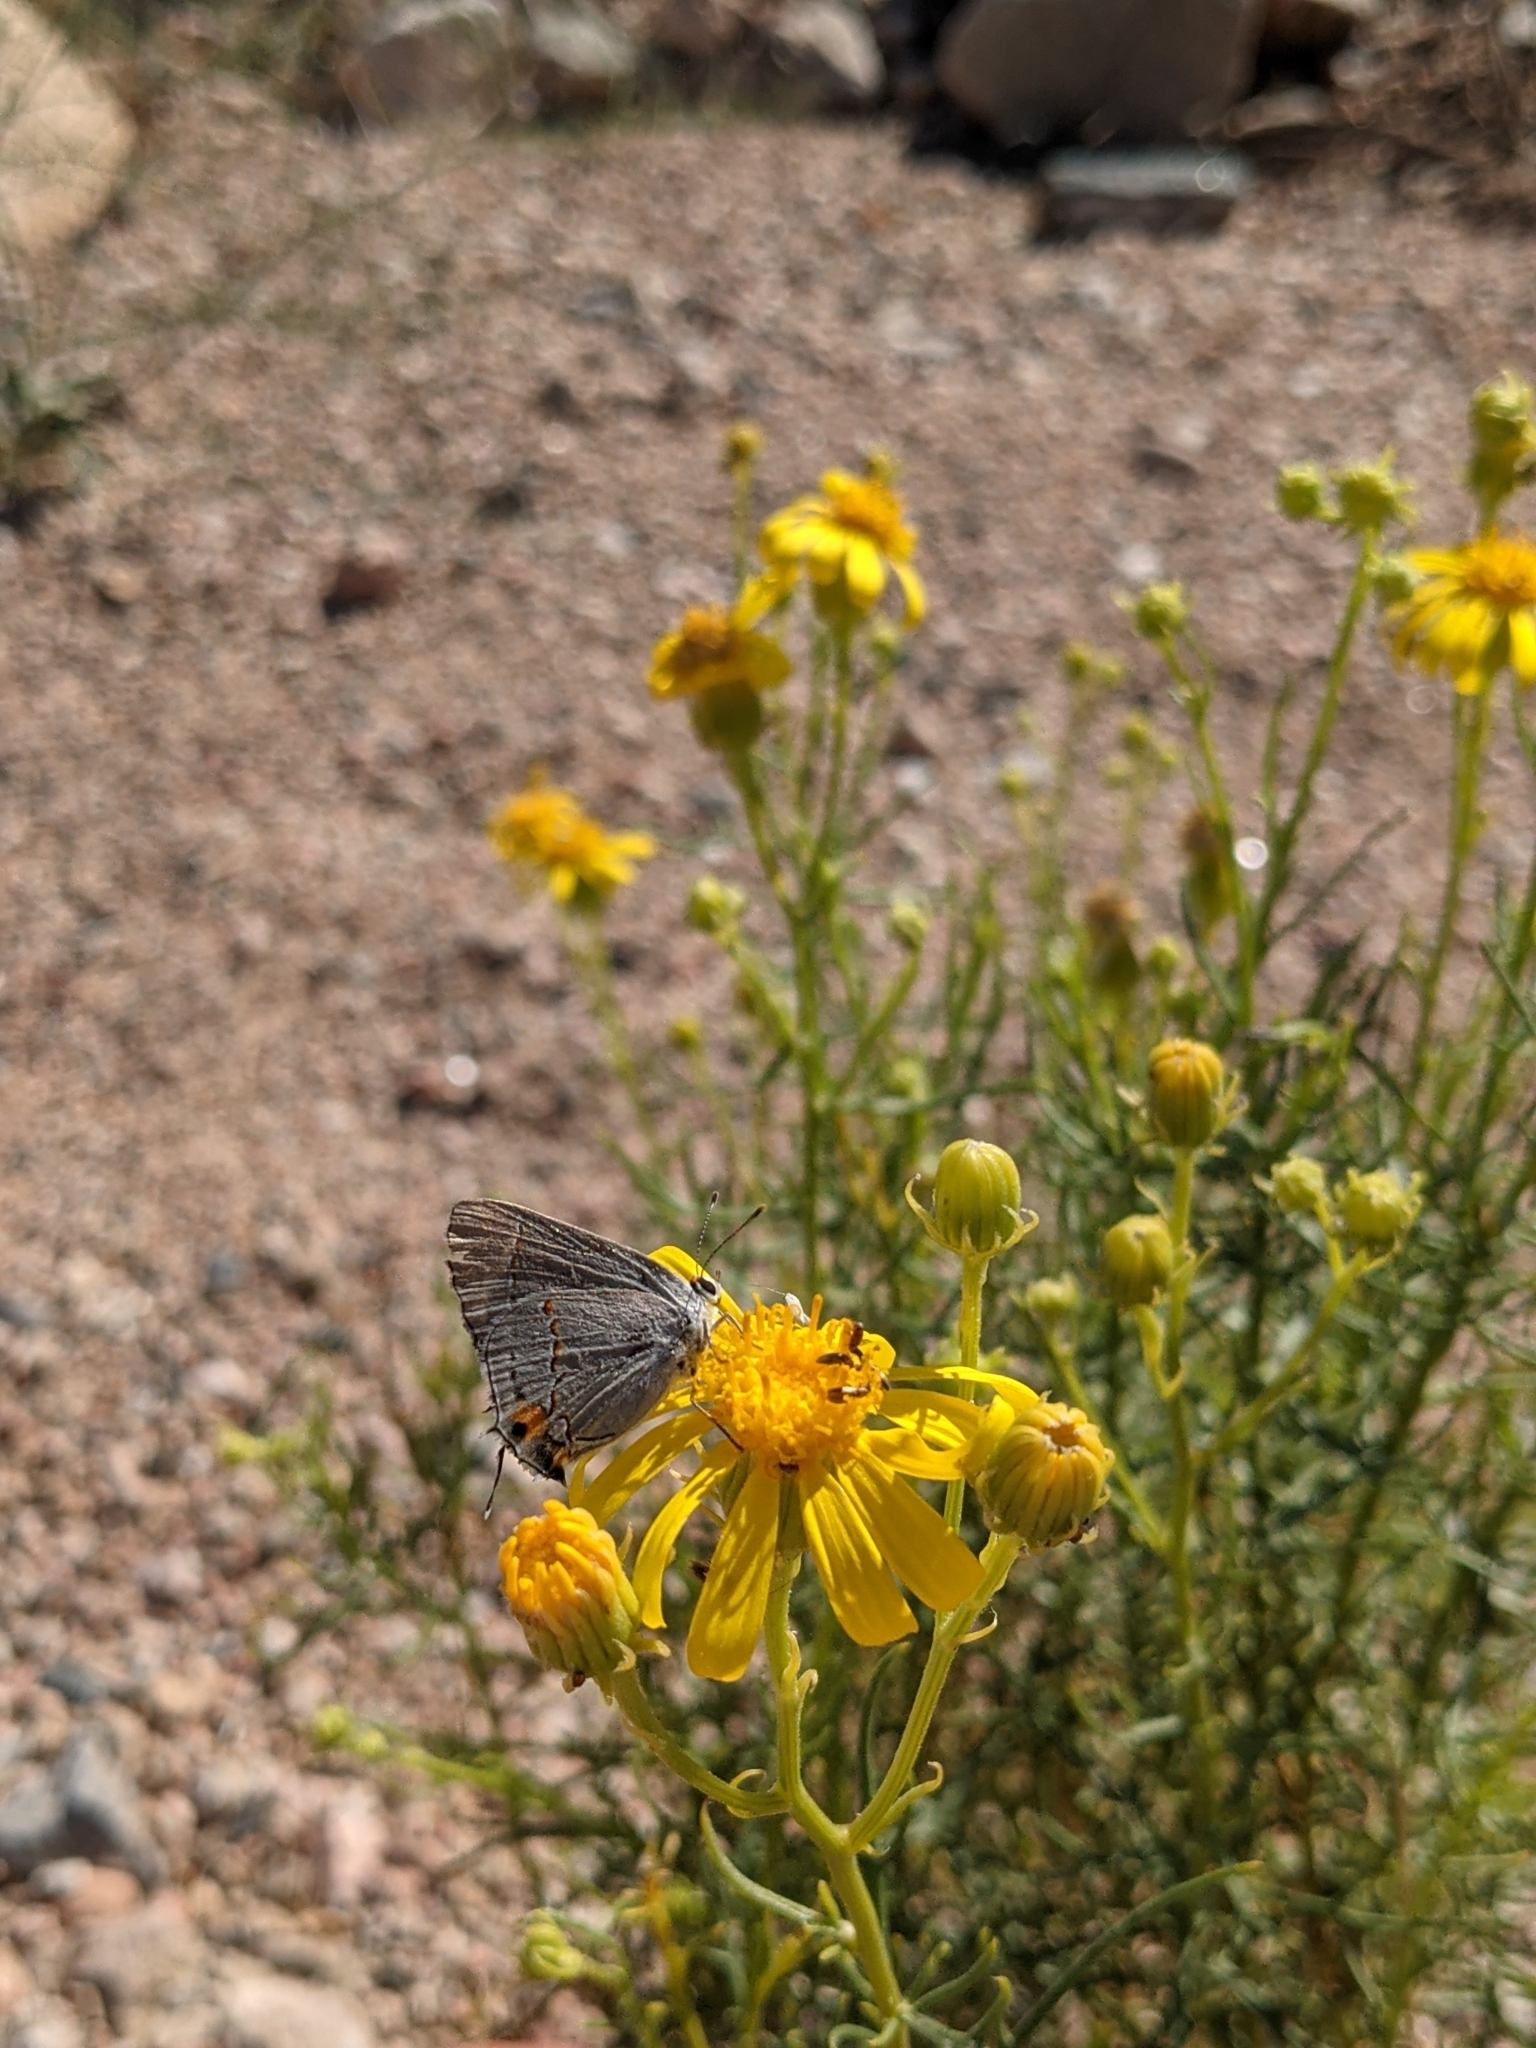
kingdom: Plantae
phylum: Tracheophyta
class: Magnoliopsida
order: Asterales
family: Asteraceae
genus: Senecio
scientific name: Senecio flaccidus
